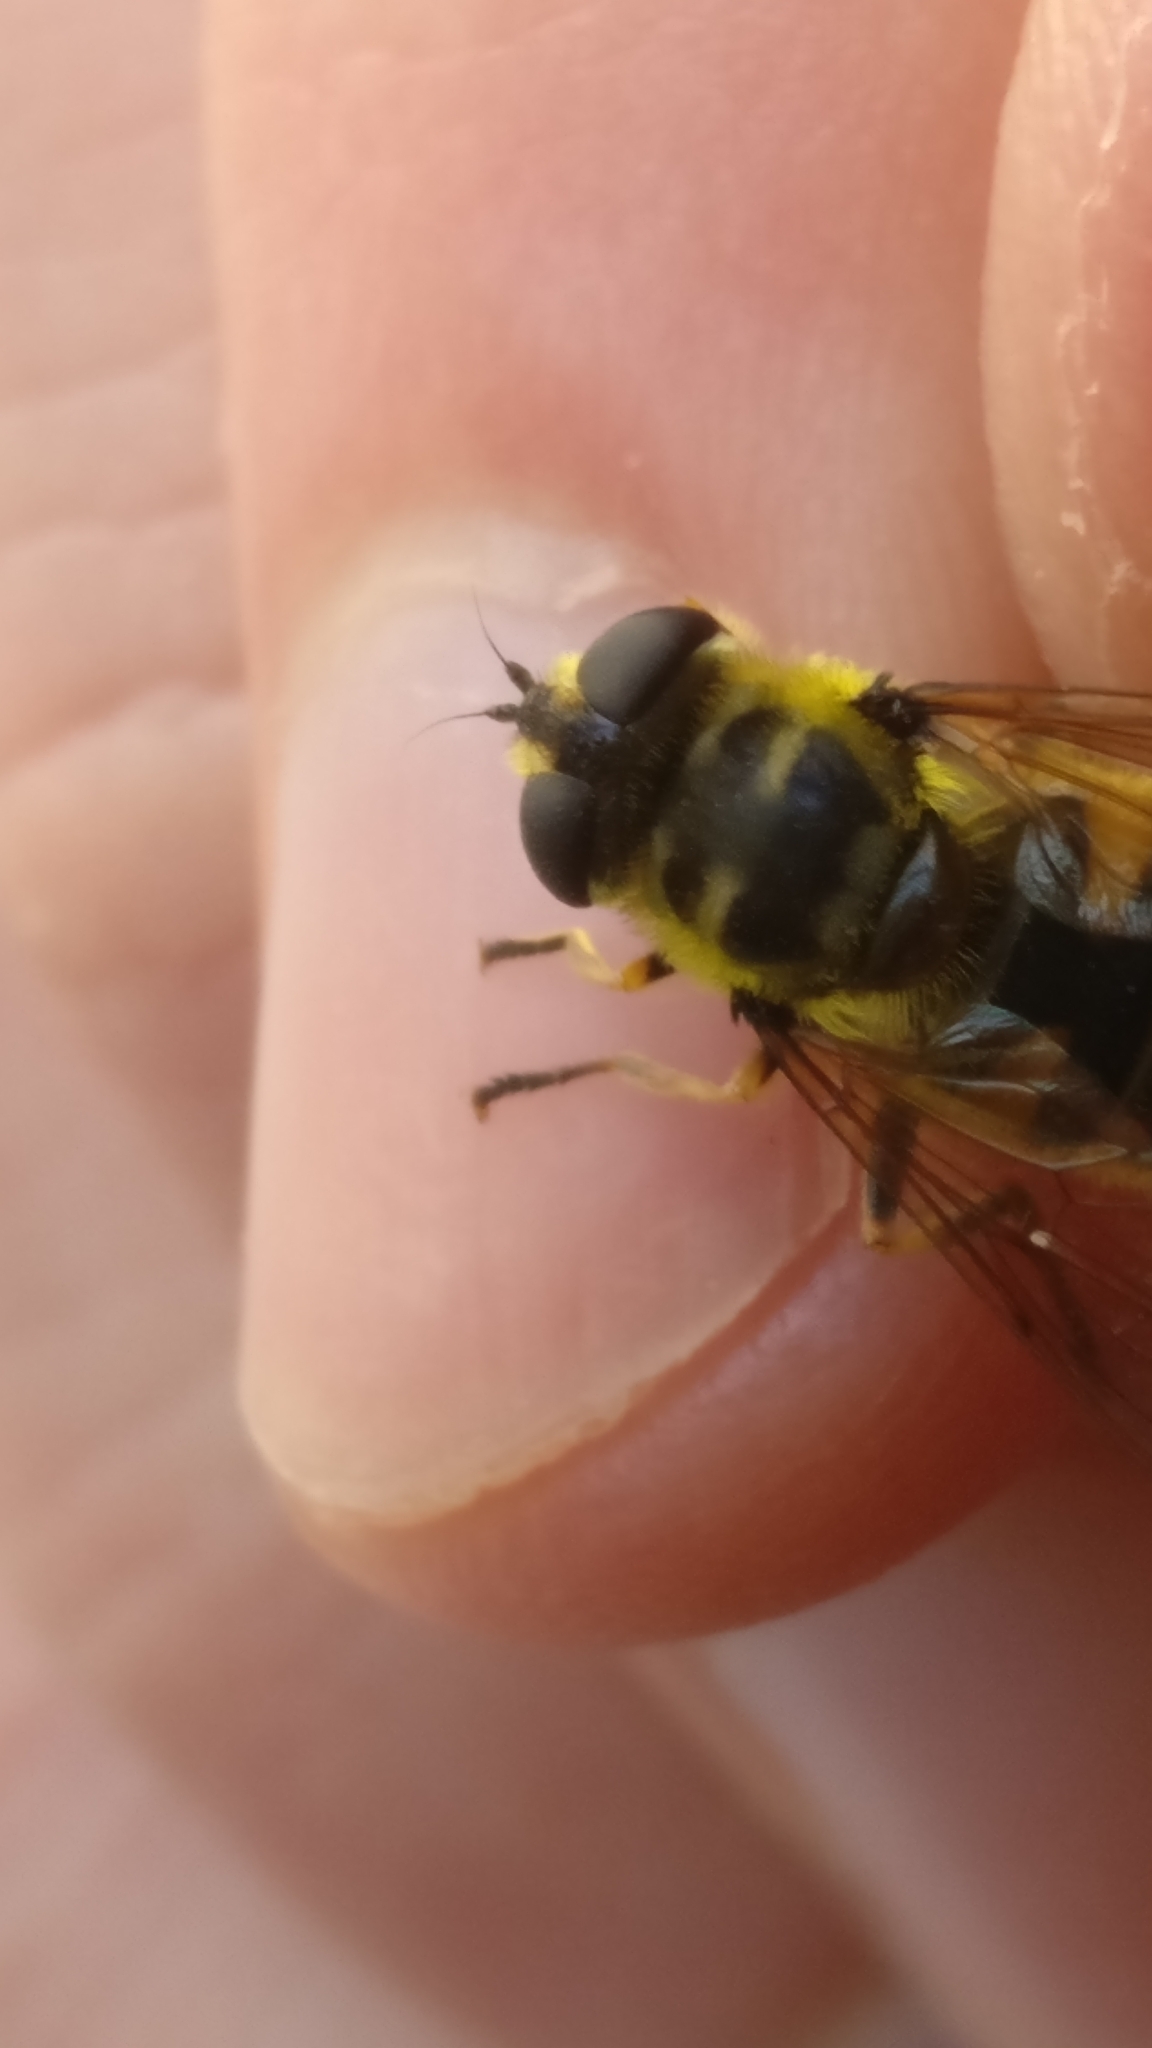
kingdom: Animalia
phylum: Arthropoda
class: Insecta
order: Diptera
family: Syrphidae
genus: Myathropa
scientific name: Myathropa florea
